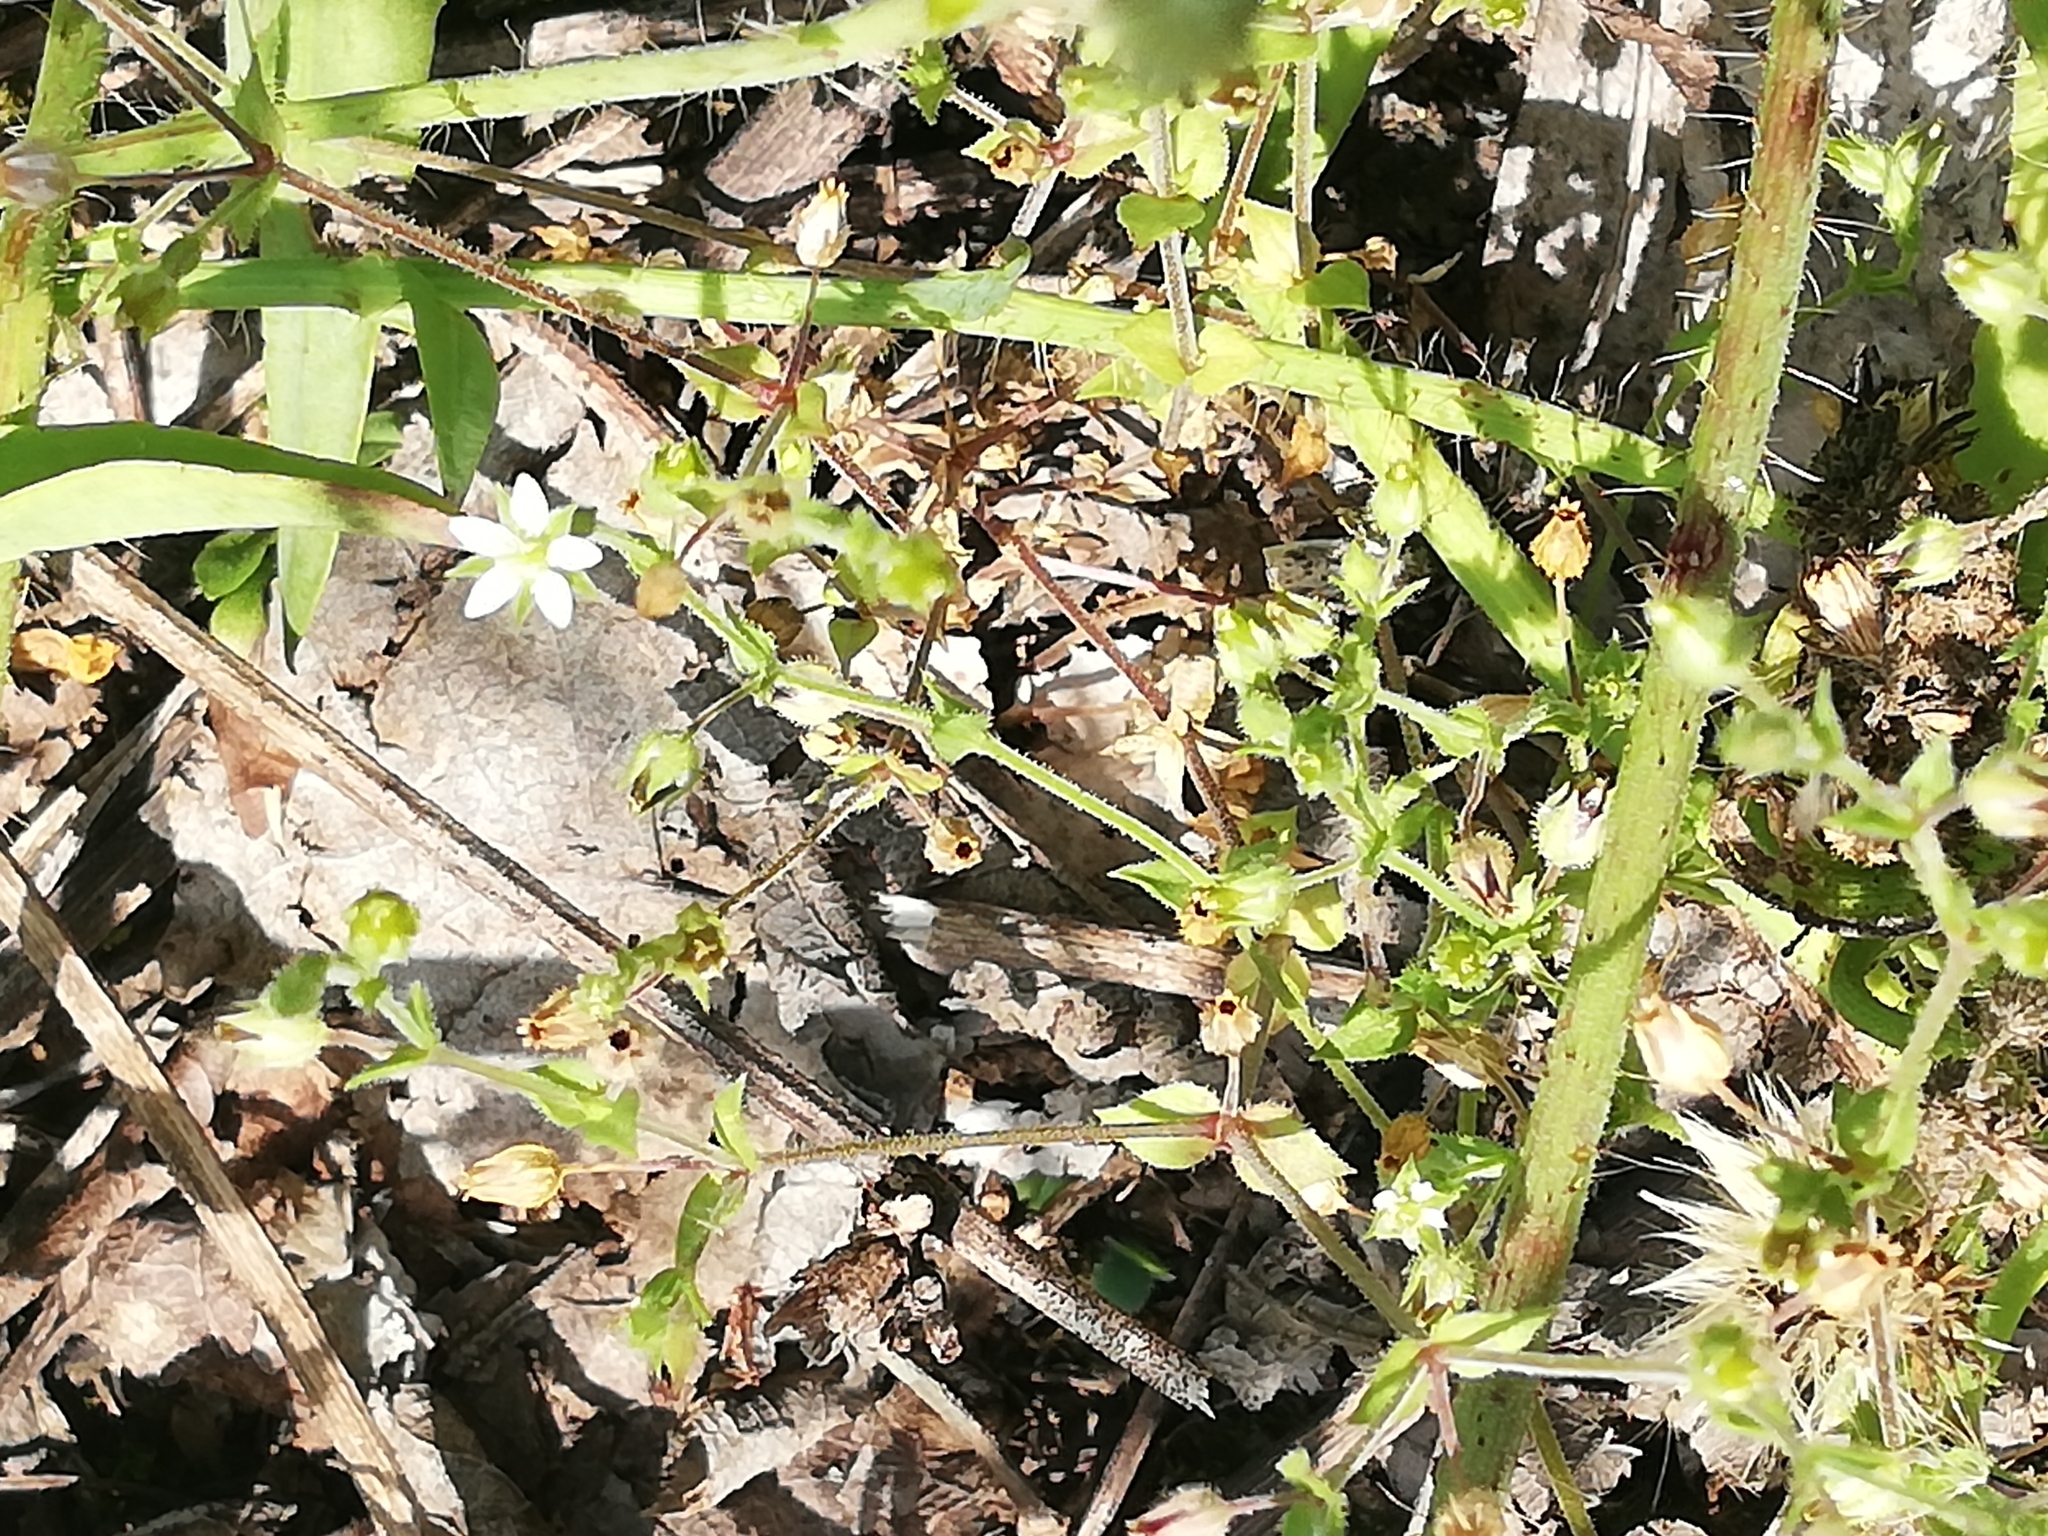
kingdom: Plantae
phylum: Tracheophyta
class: Magnoliopsida
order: Caryophyllales
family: Caryophyllaceae
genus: Arenaria
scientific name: Arenaria serpyllifolia
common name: Thyme-leaved sandwort
